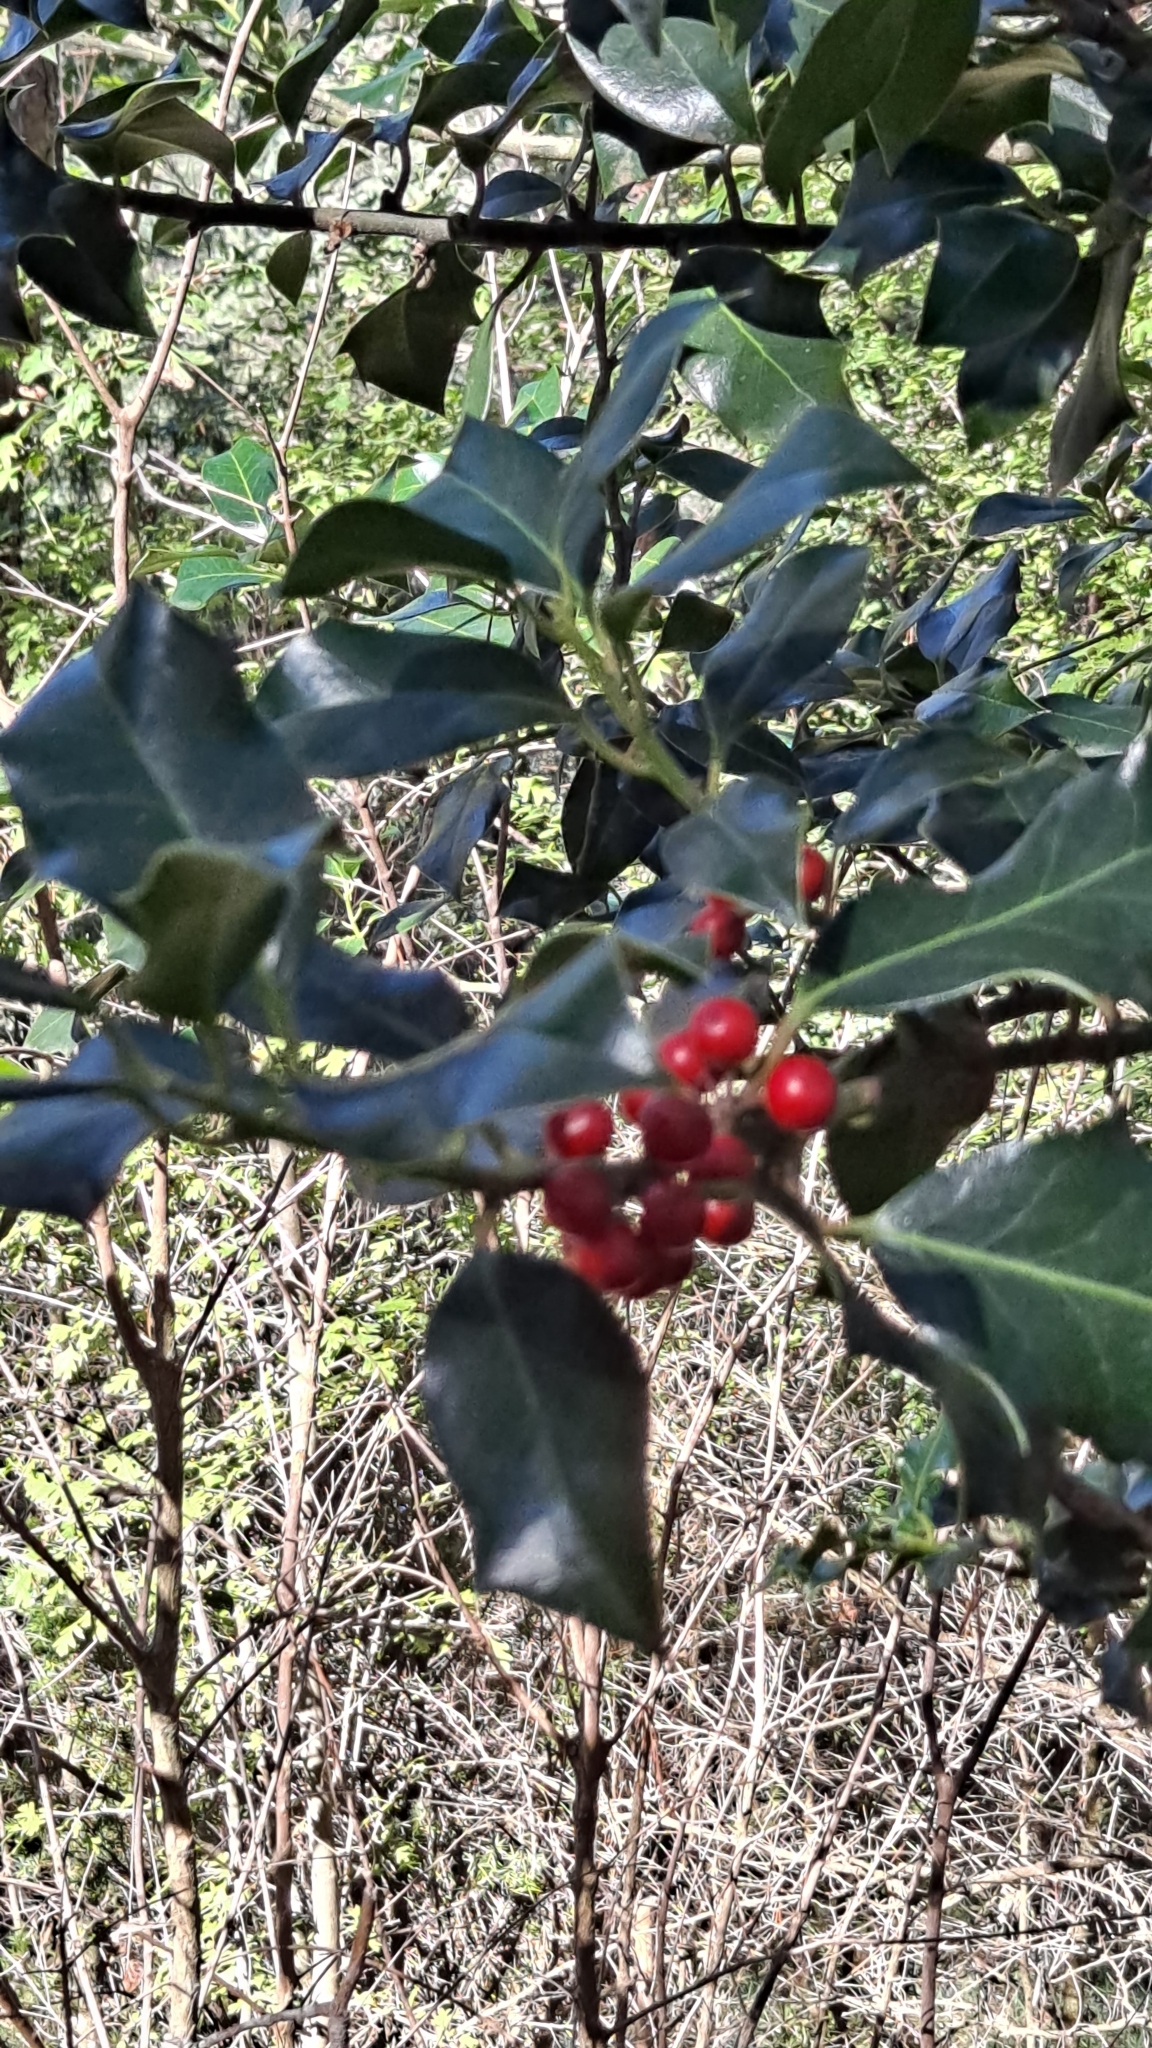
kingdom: Plantae
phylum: Tracheophyta
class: Magnoliopsida
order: Aquifoliales
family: Aquifoliaceae
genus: Ilex
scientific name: Ilex aquifolium
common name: English holly
